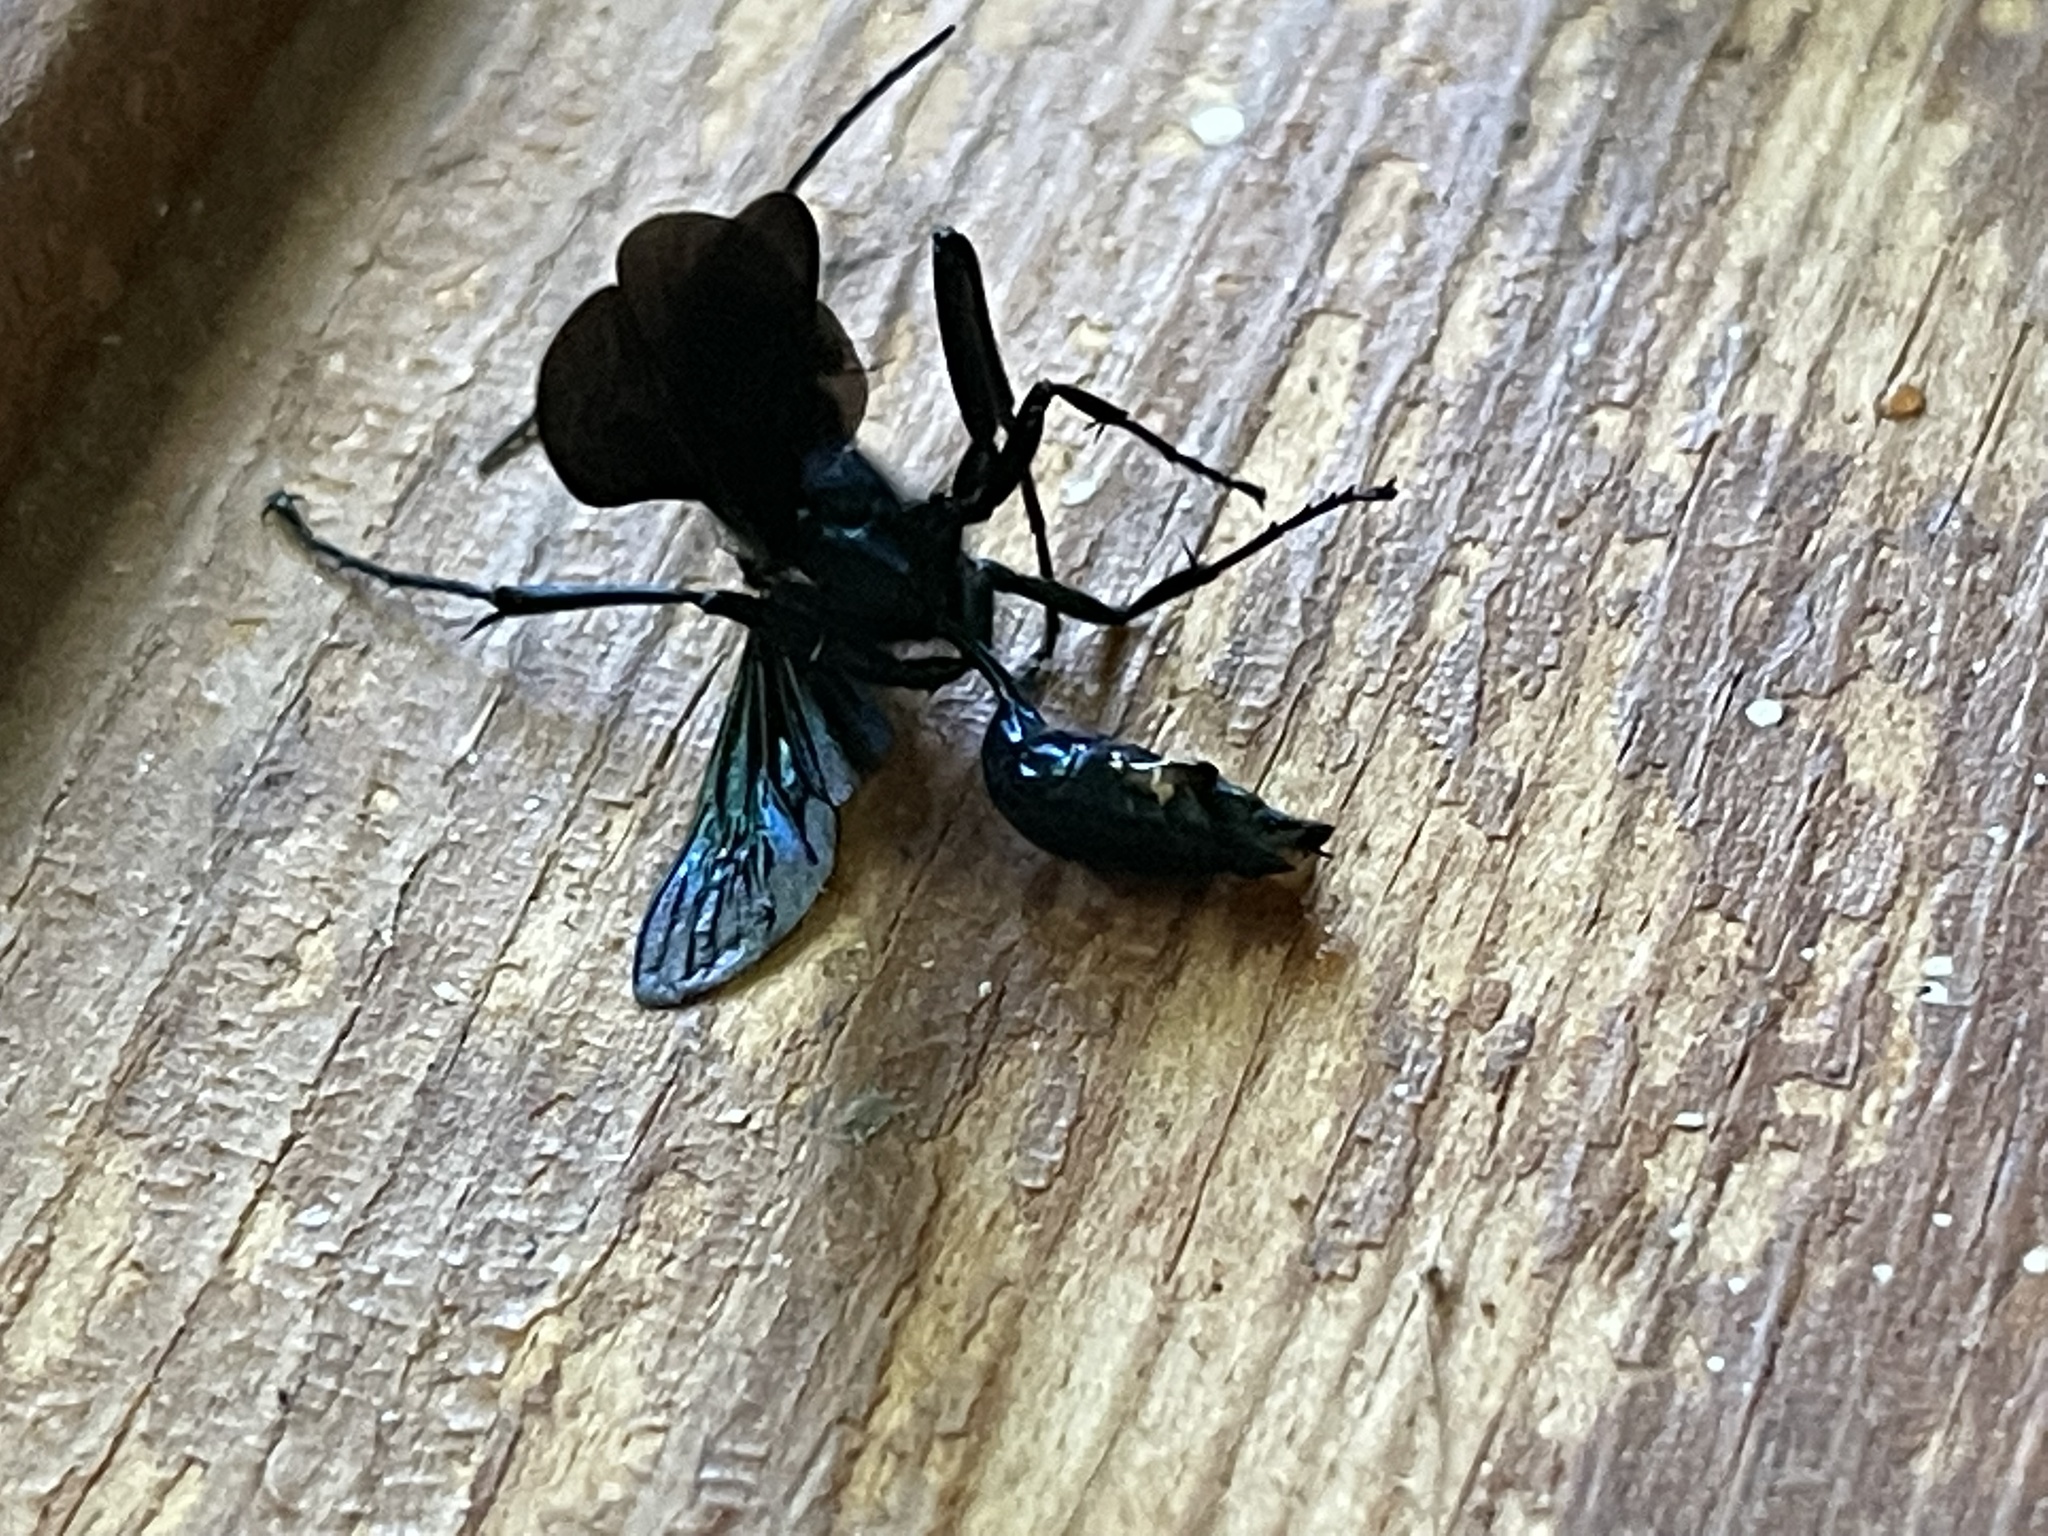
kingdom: Animalia
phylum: Arthropoda
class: Insecta
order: Hymenoptera
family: Sphecidae
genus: Chalybion
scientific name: Chalybion californicum
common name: Mud dauber
